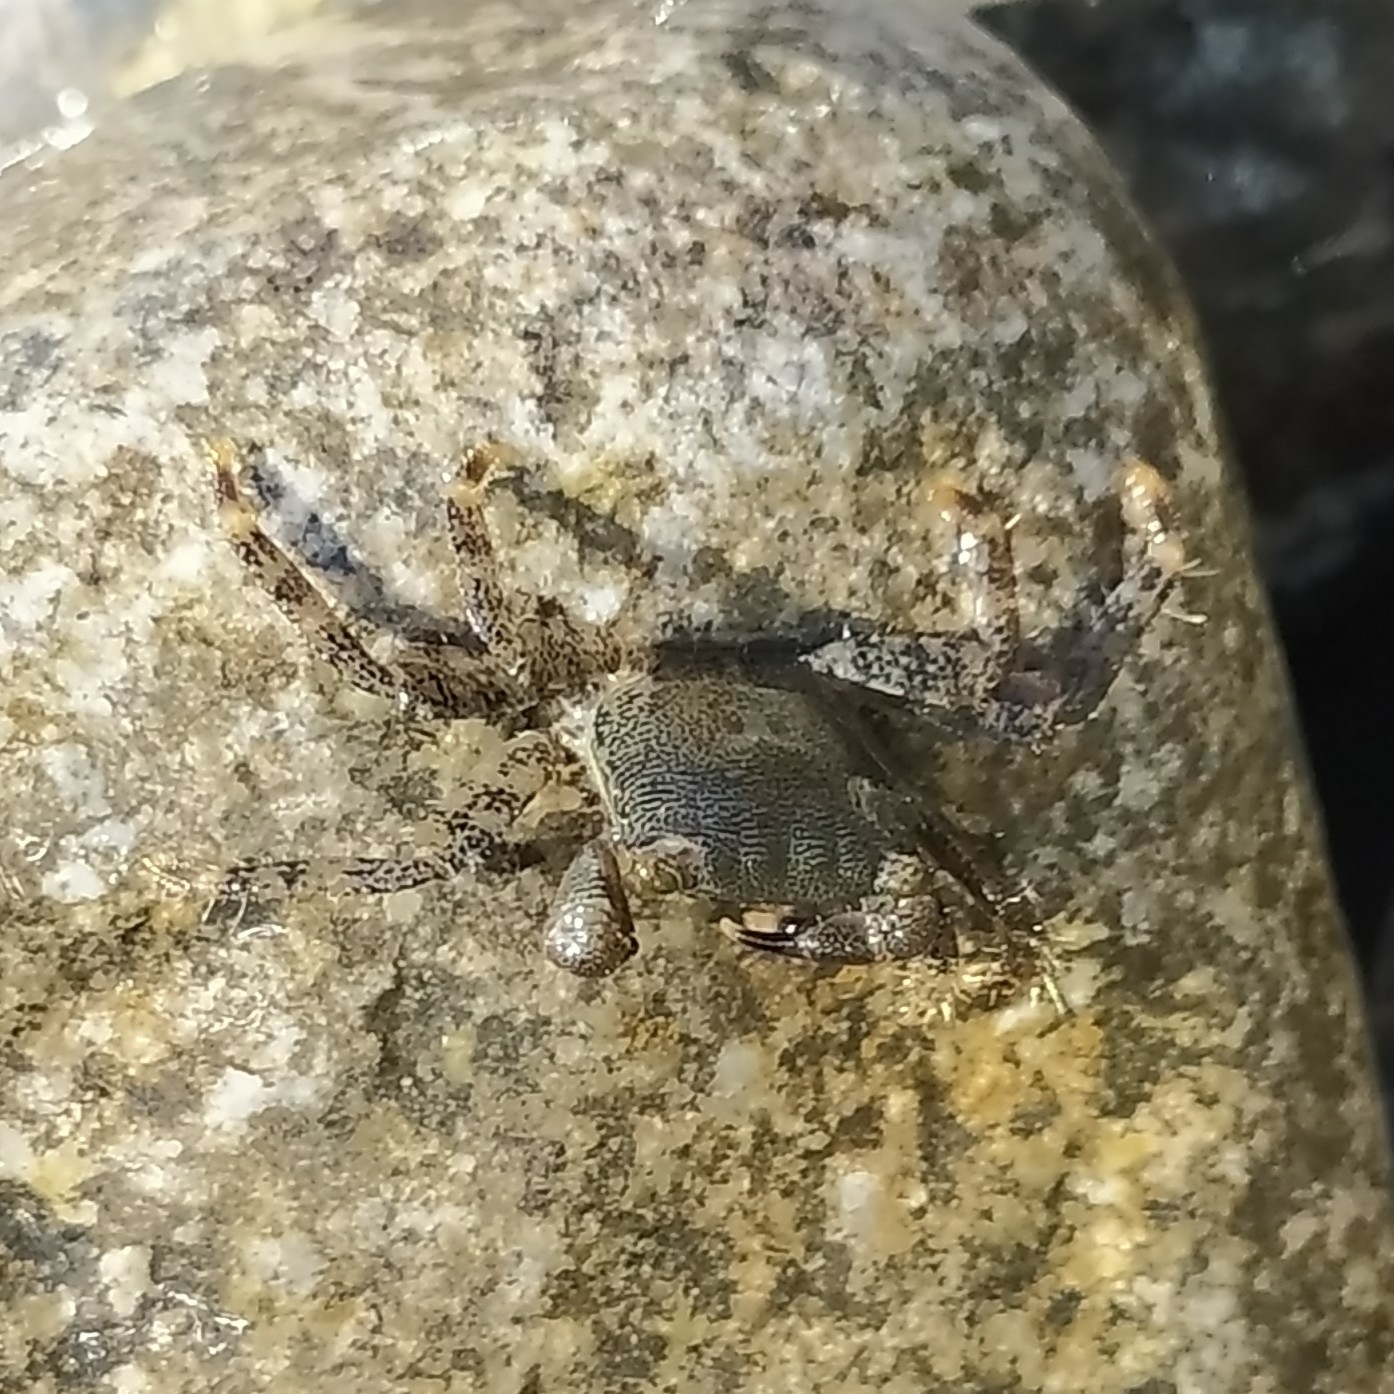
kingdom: Animalia
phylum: Arthropoda
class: Malacostraca
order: Decapoda
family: Grapsidae
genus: Pachygrapsus
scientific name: Pachygrapsus marmoratus
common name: Marbled rock crab
